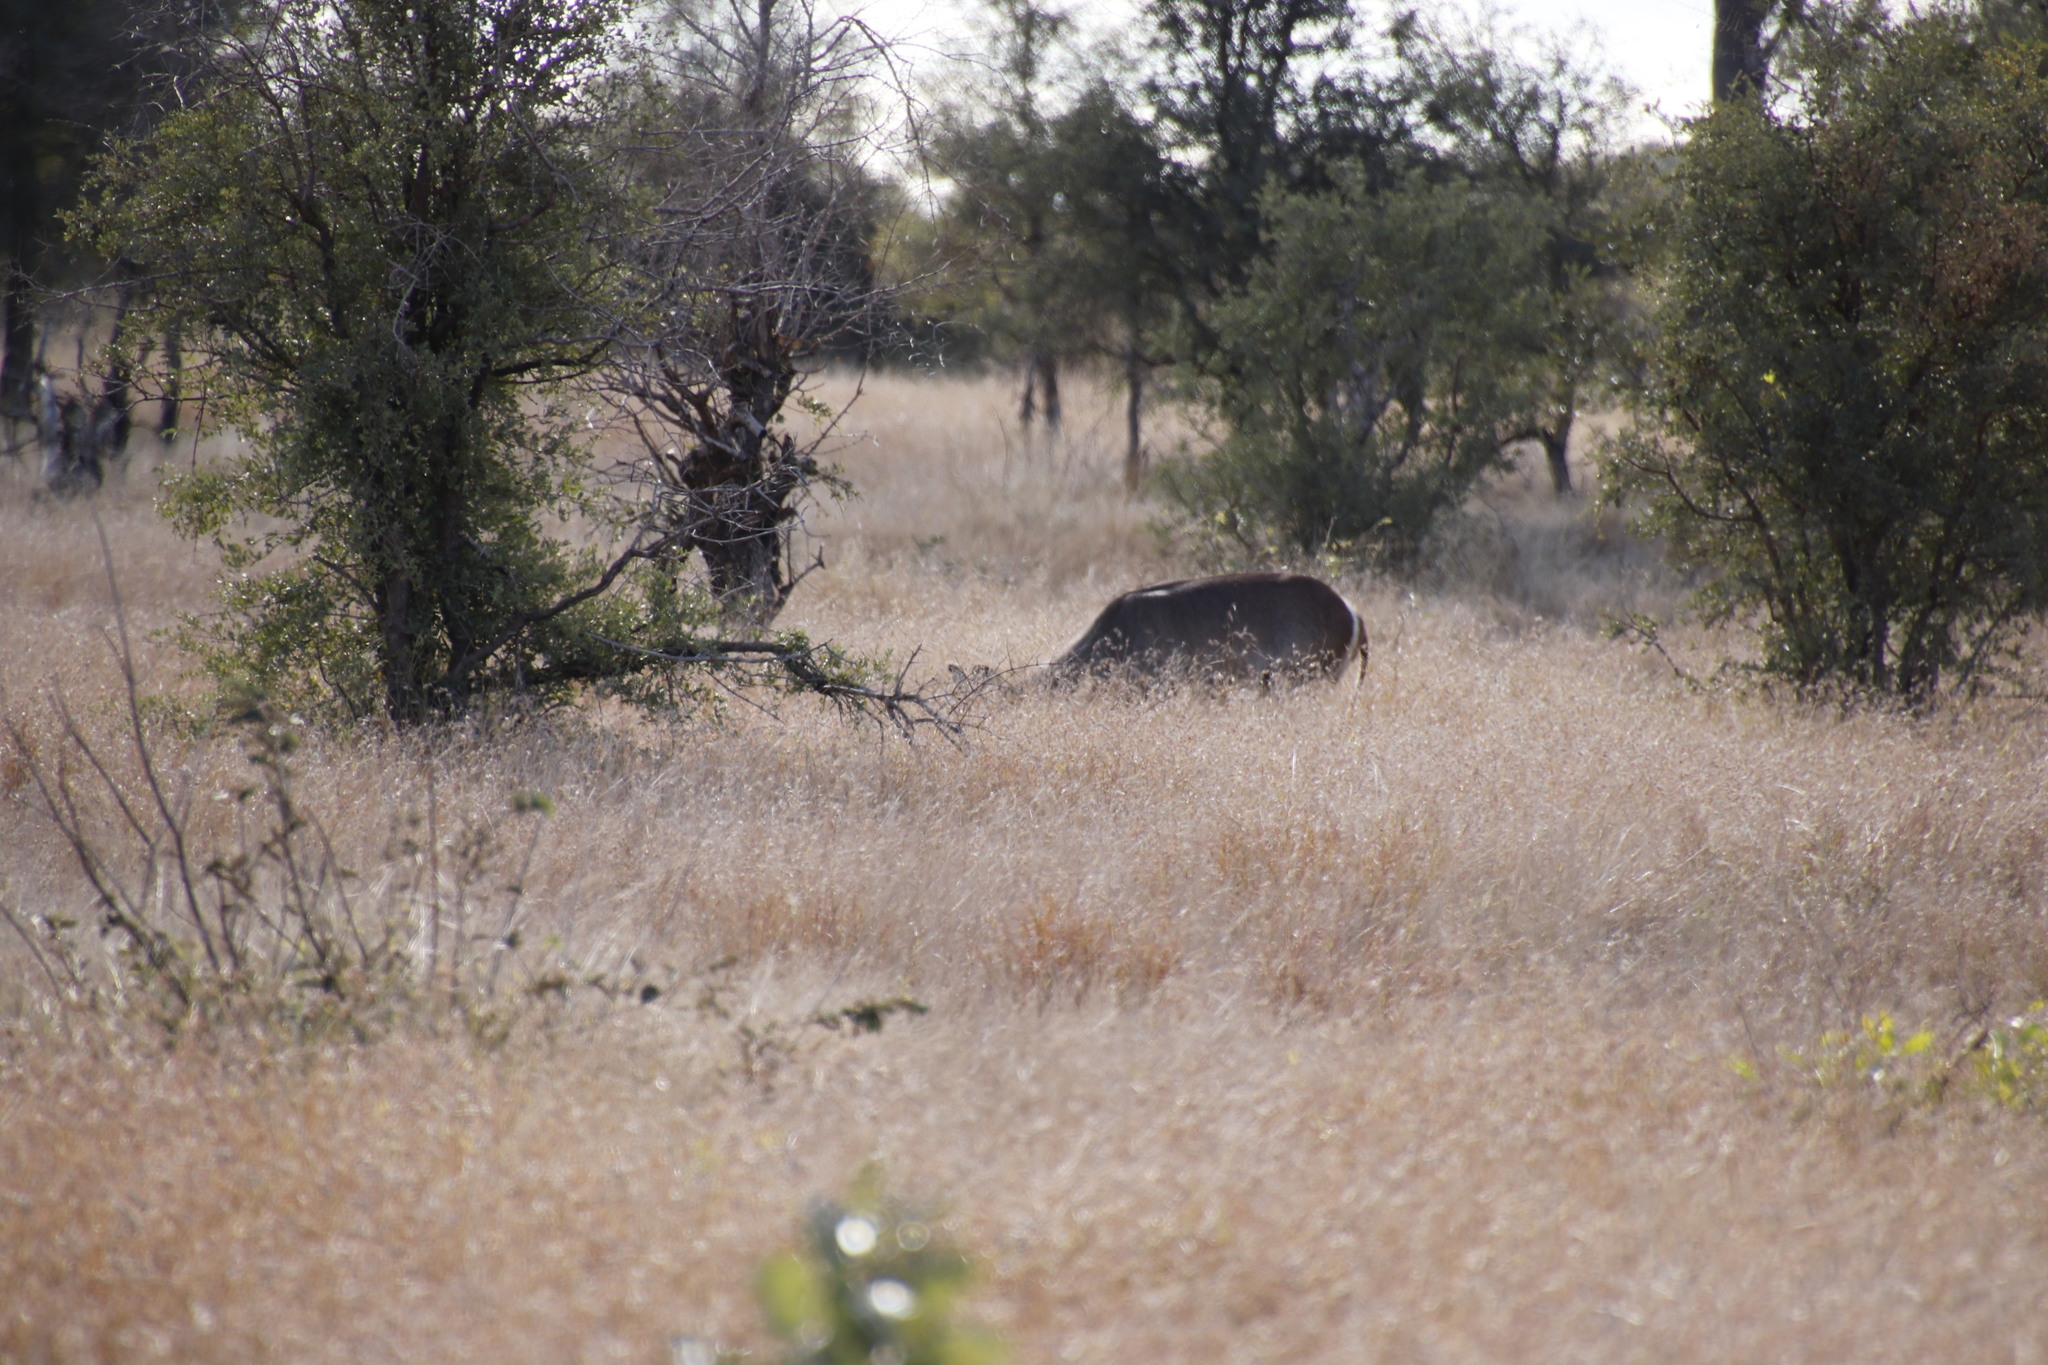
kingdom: Animalia
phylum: Chordata
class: Mammalia
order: Artiodactyla
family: Bovidae
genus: Kobus
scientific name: Kobus ellipsiprymnus
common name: Waterbuck
